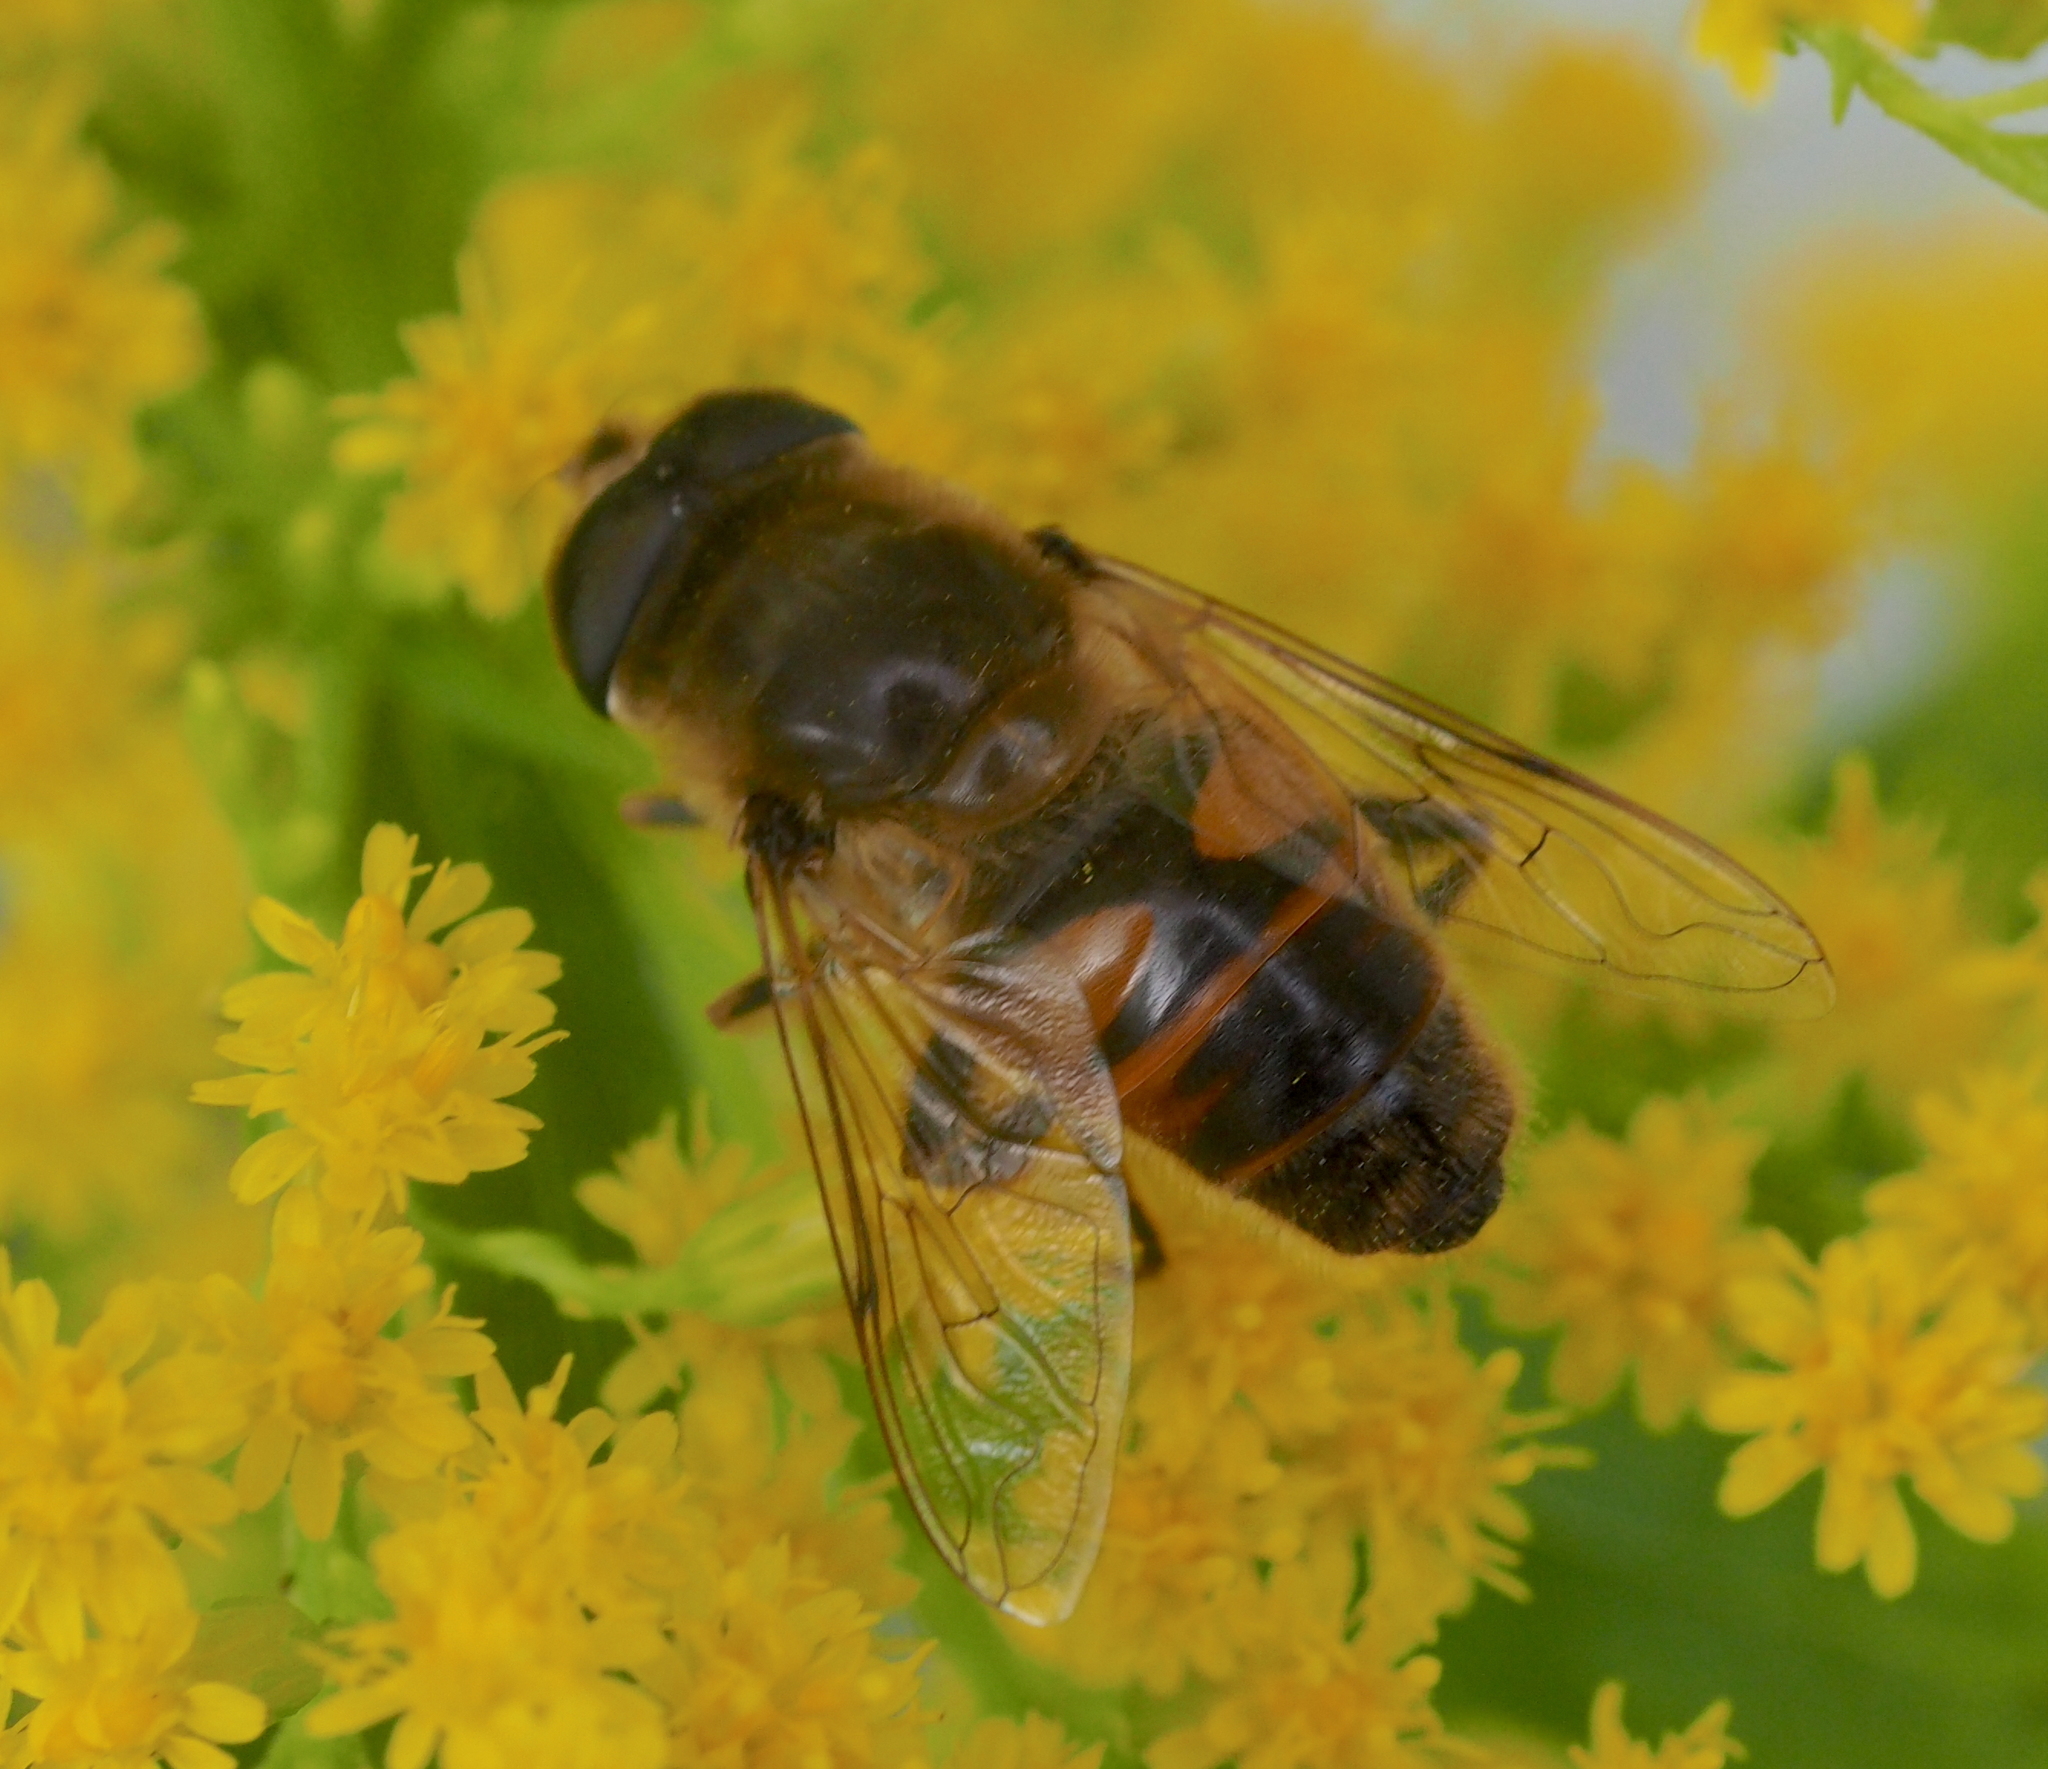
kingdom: Animalia
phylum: Arthropoda
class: Insecta
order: Diptera
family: Syrphidae
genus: Eristalis
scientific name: Eristalis tenax
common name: Drone fly
